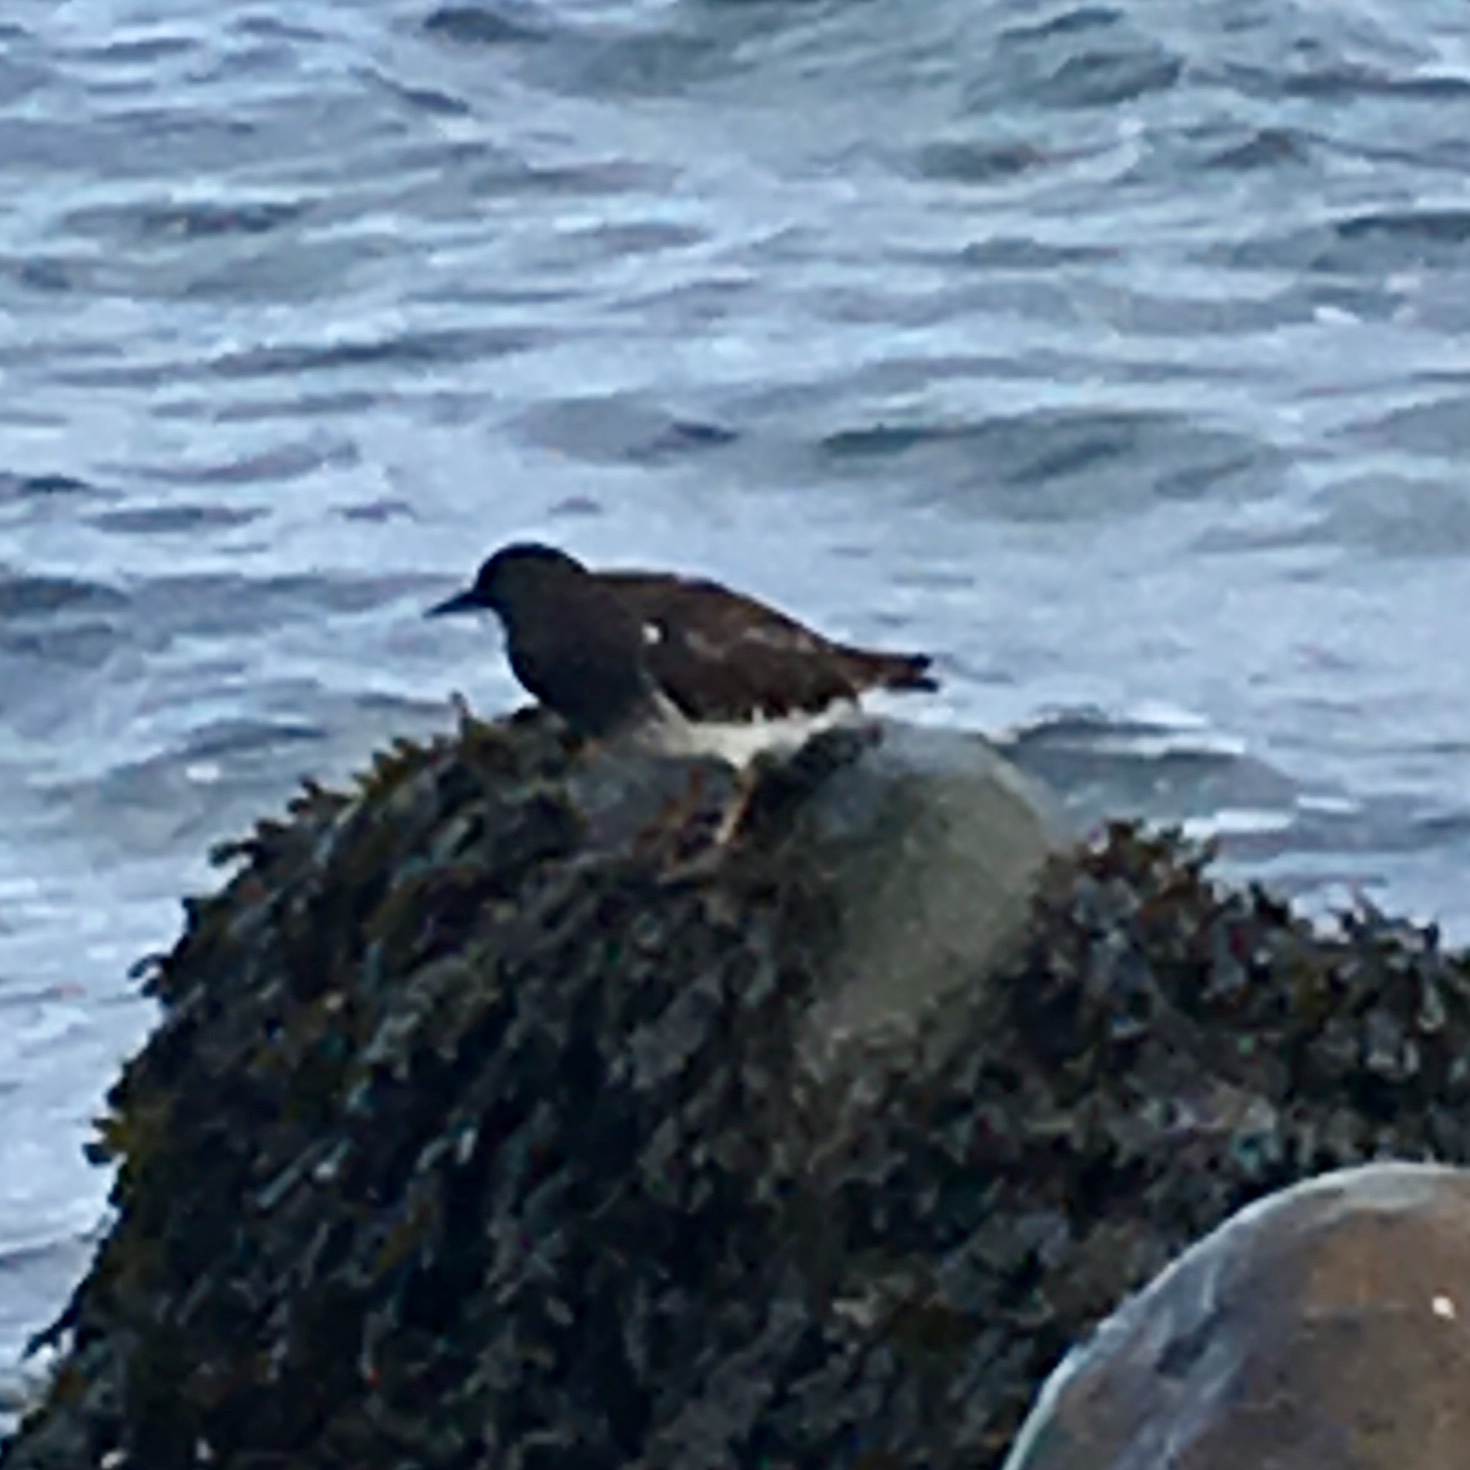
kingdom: Animalia
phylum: Chordata
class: Aves
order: Charadriiformes
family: Scolopacidae
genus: Arenaria
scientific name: Arenaria melanocephala
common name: Black turnstone
